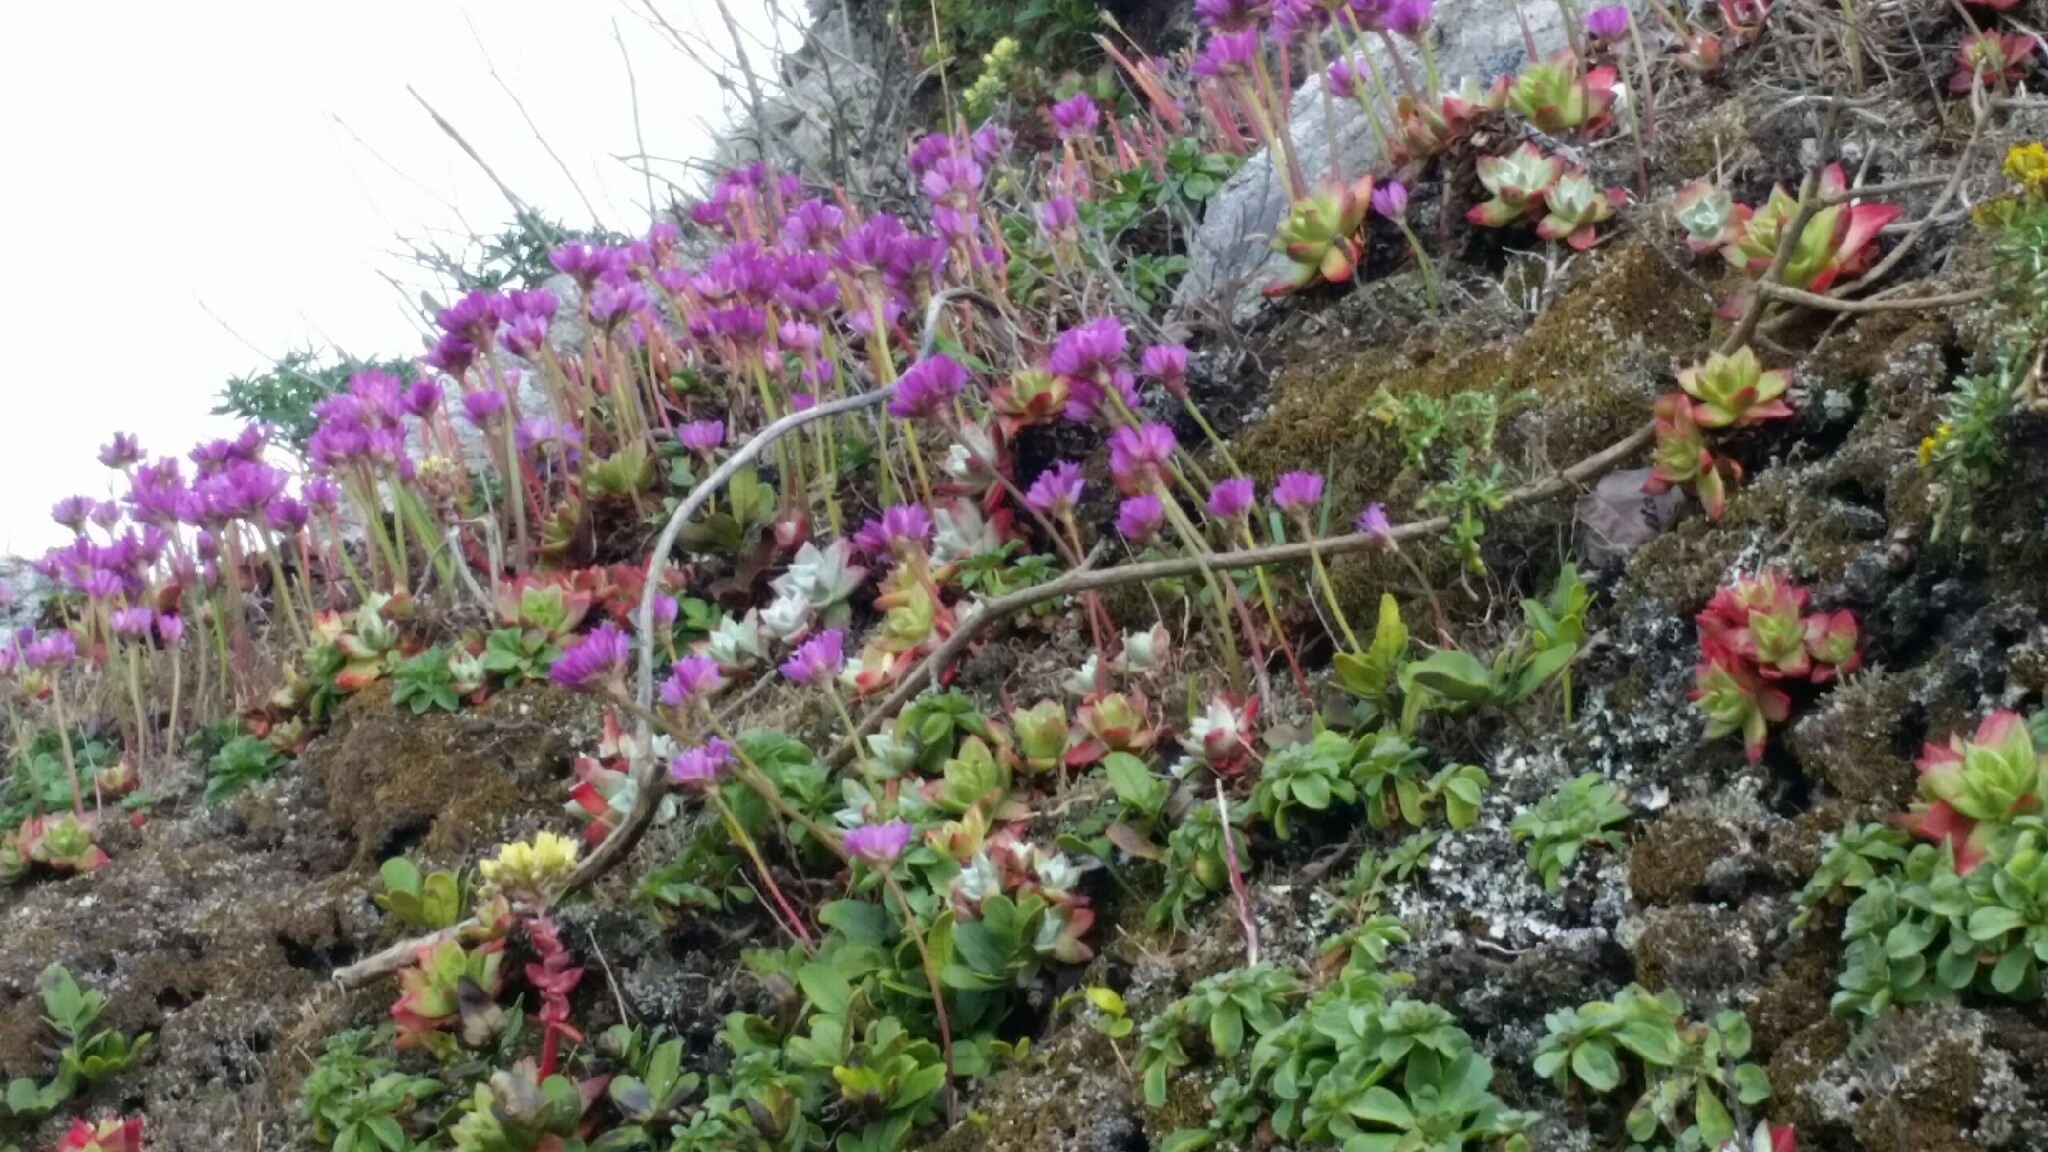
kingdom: Plantae
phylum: Tracheophyta
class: Magnoliopsida
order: Caryophyllales
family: Plumbaginaceae
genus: Armeria
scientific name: Armeria maritima
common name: Thrift
